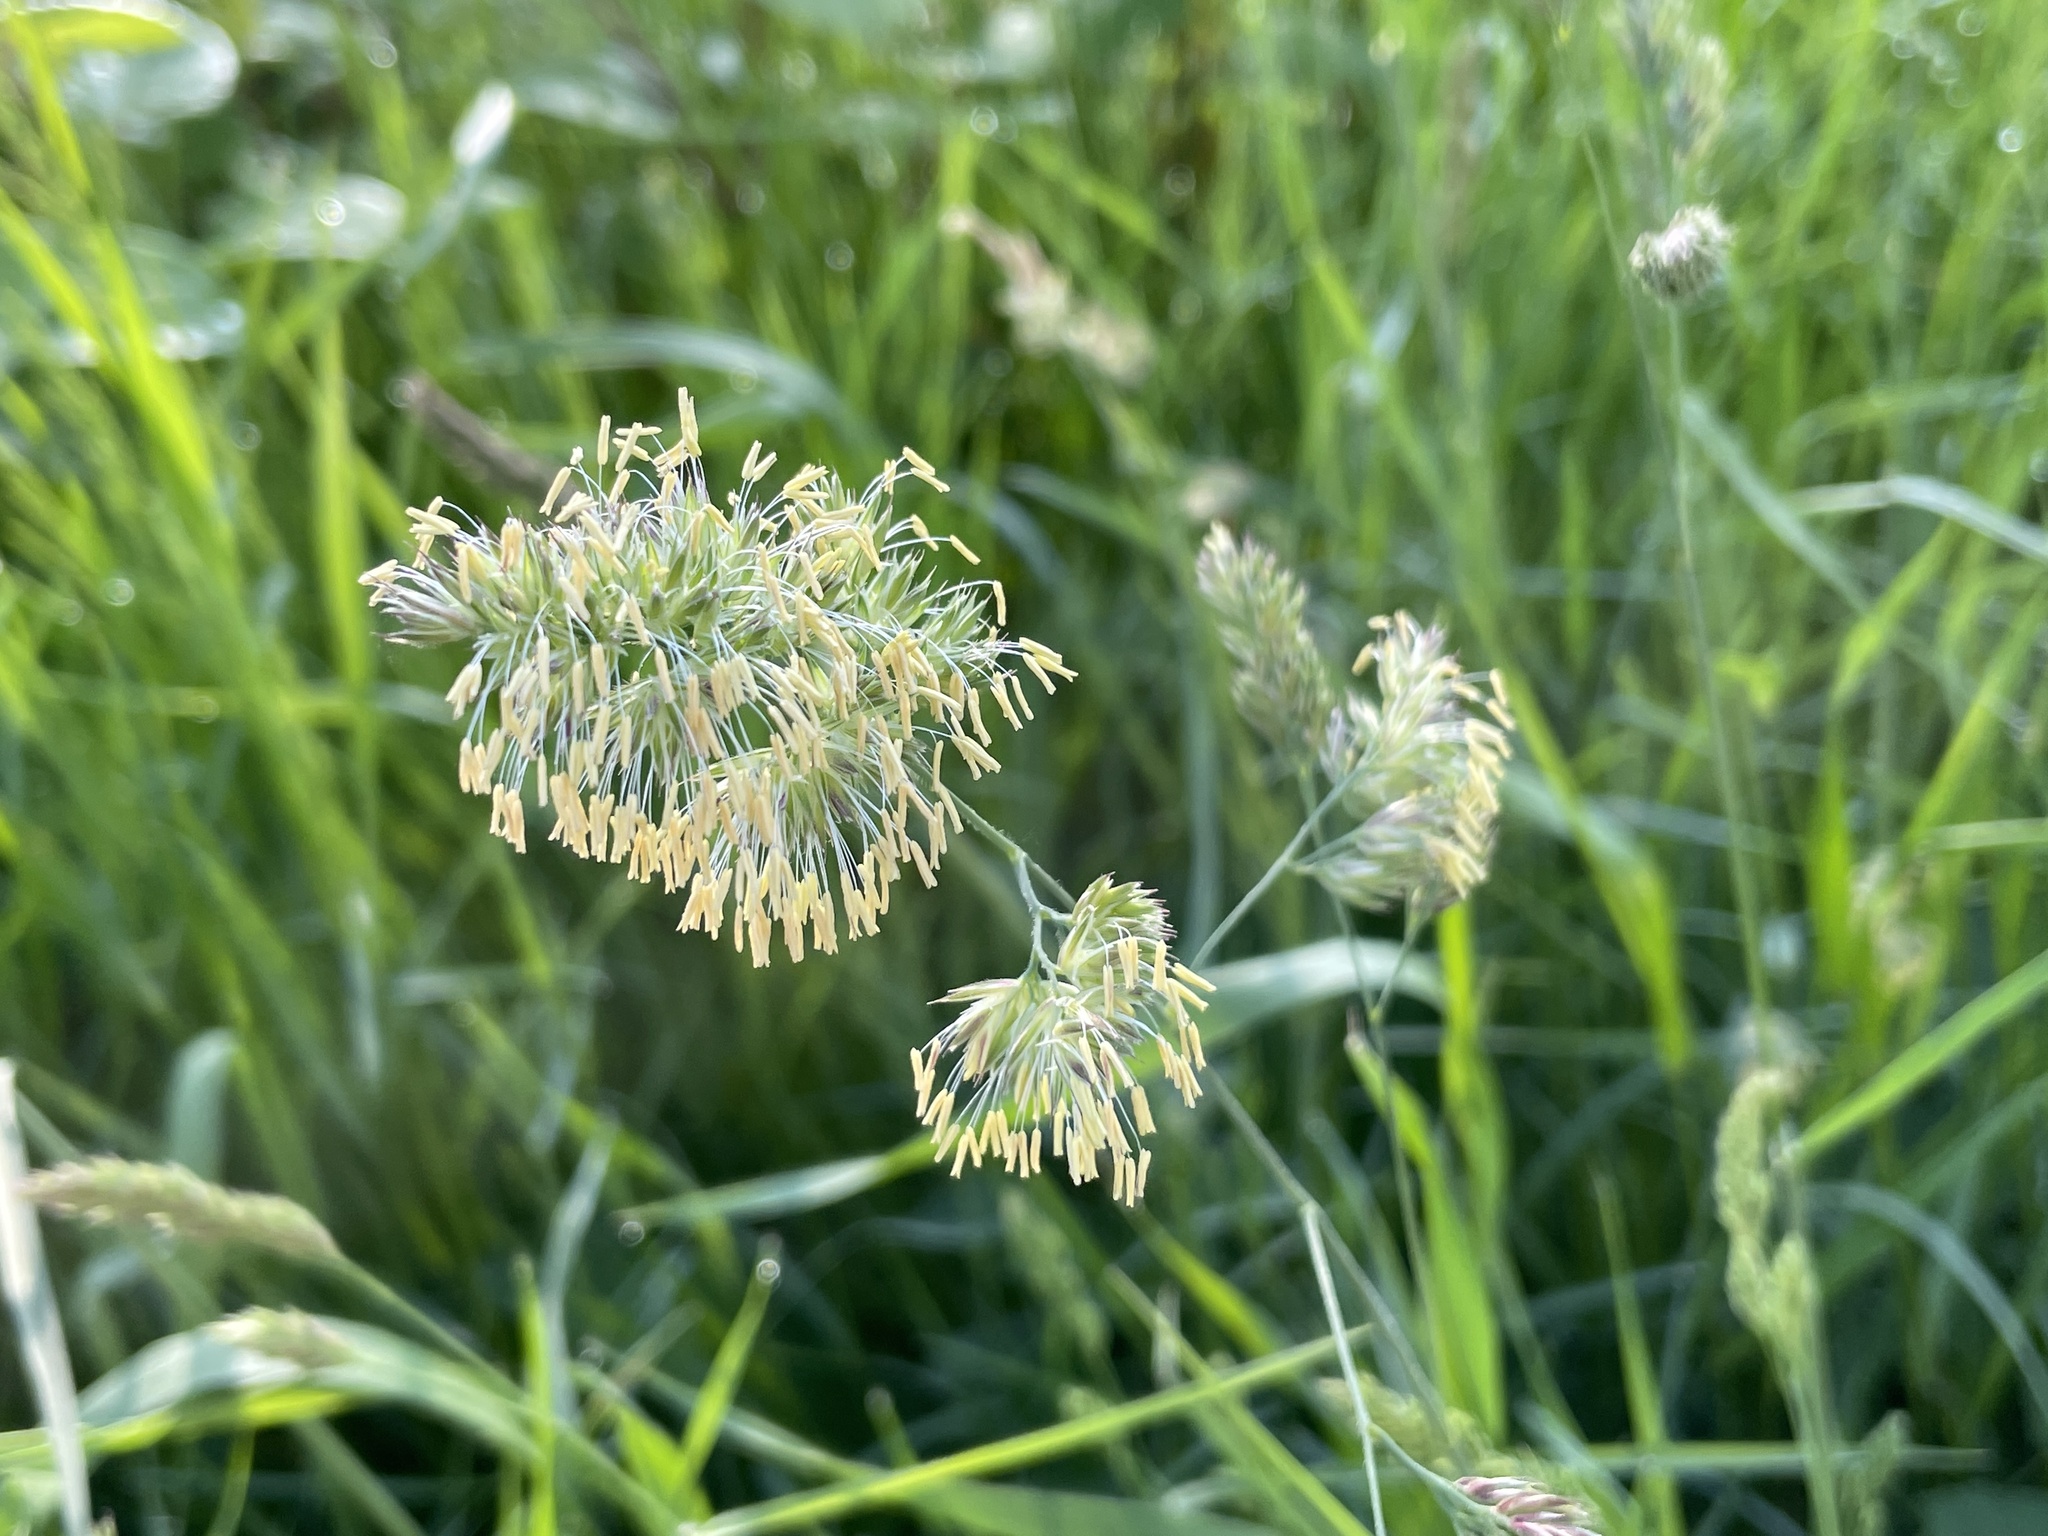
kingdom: Plantae
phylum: Tracheophyta
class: Liliopsida
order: Poales
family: Poaceae
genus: Dactylis
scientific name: Dactylis glomerata
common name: Orchardgrass
